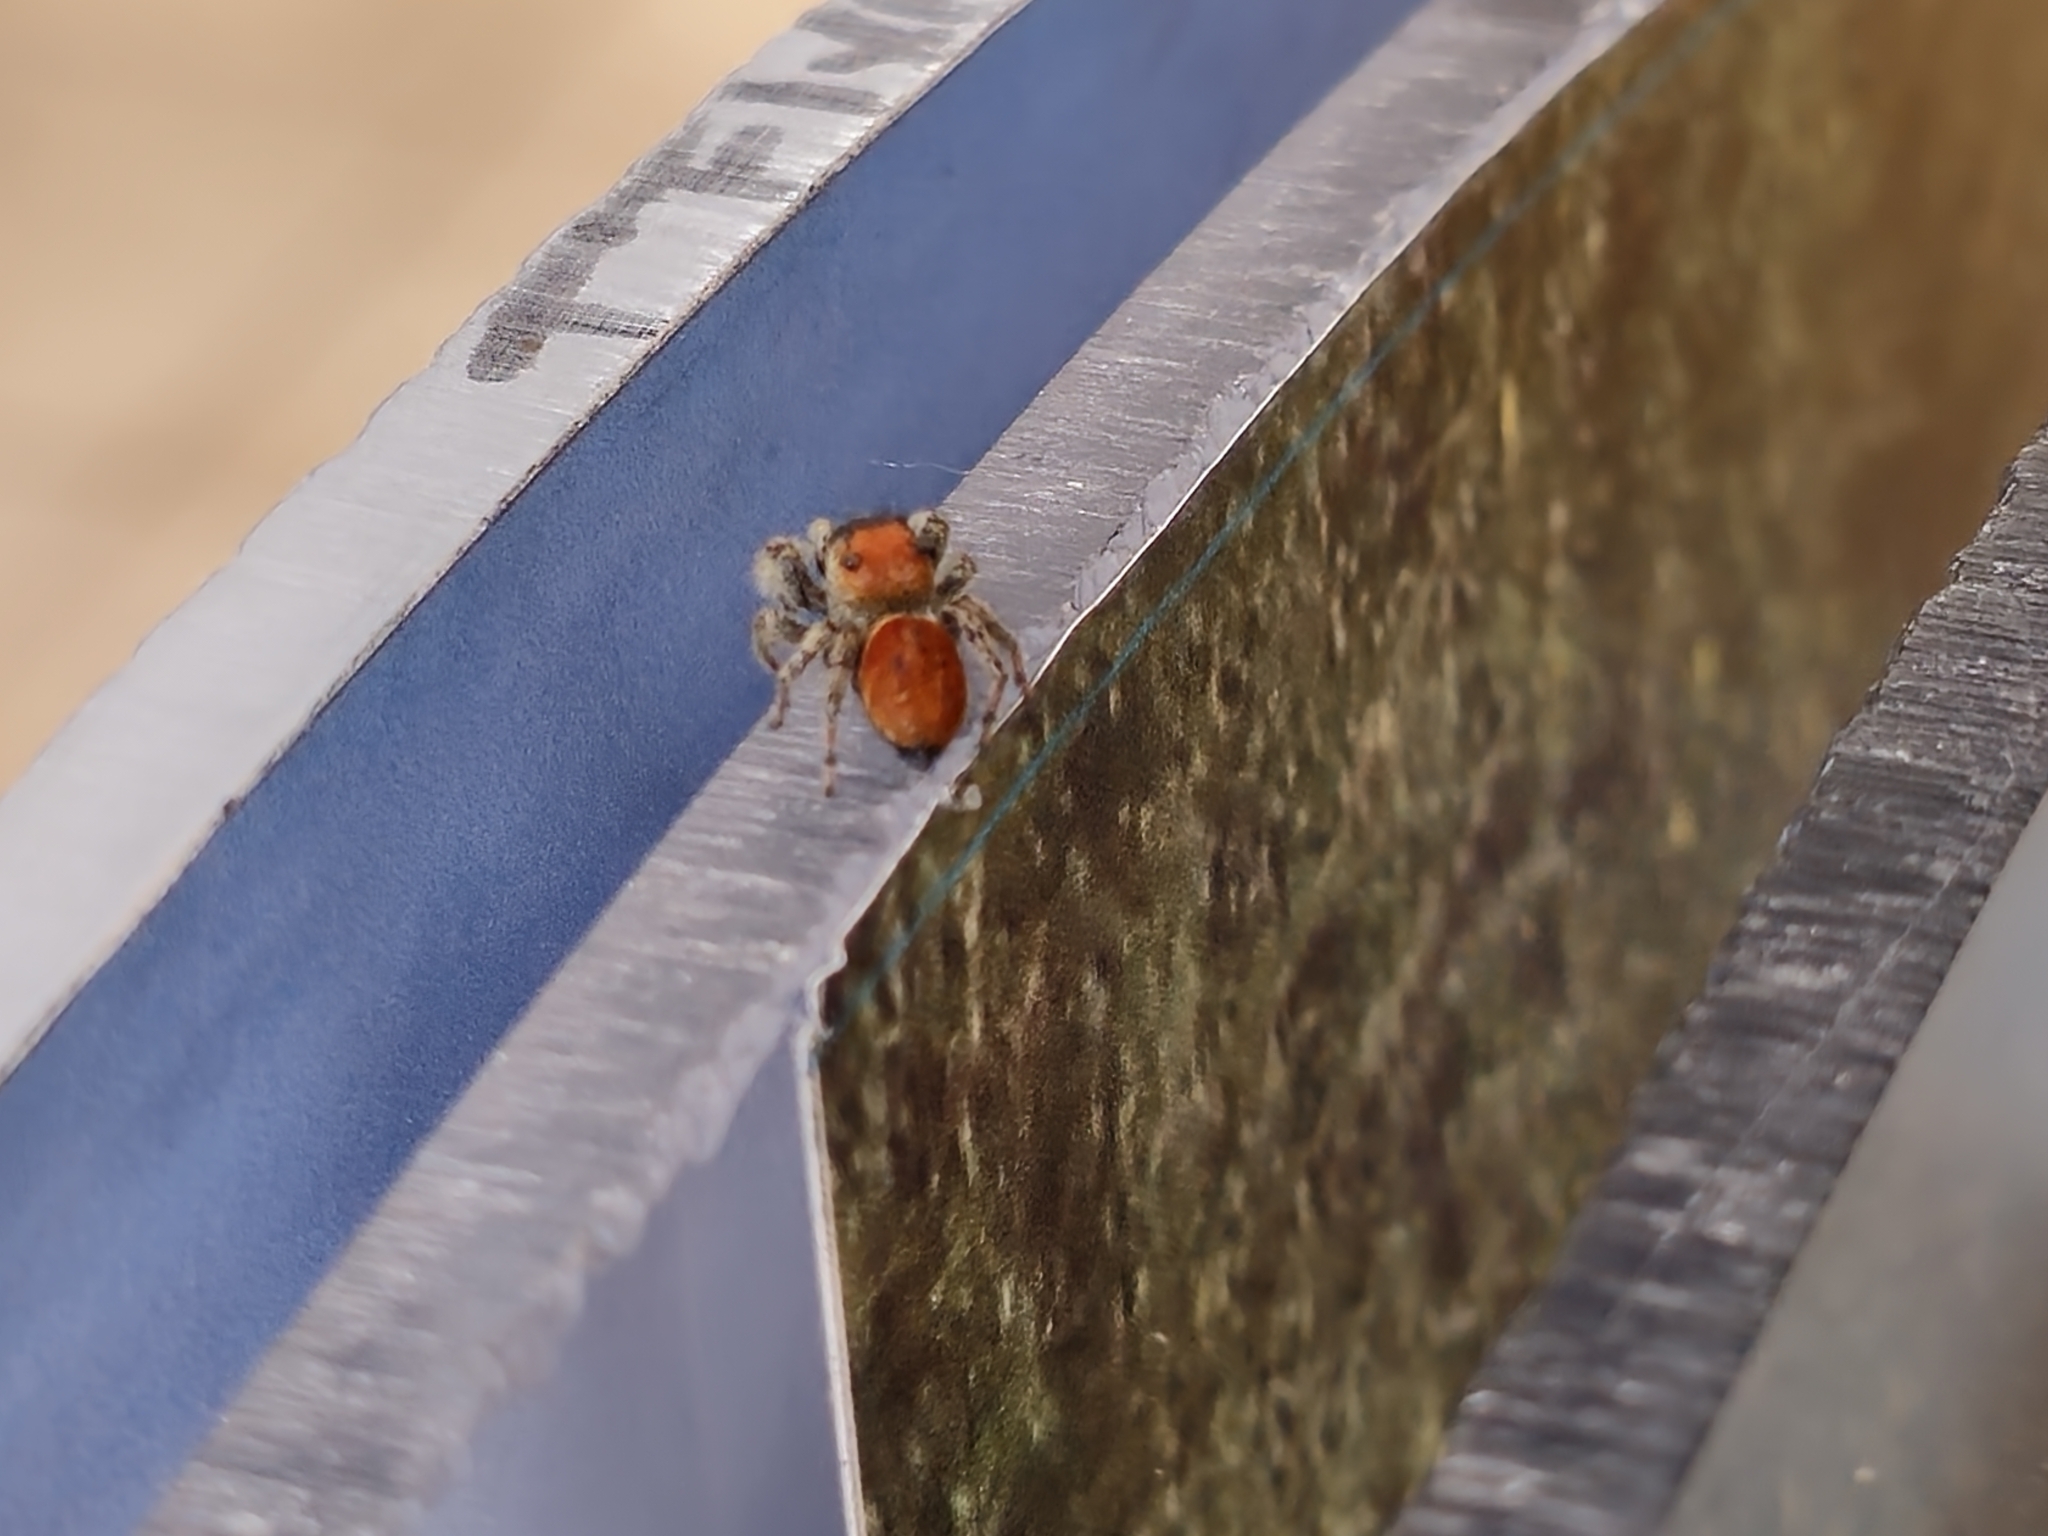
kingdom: Animalia
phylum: Arthropoda
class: Arachnida
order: Araneae
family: Salticidae
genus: Phidippus
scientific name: Phidippus whitmani
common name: Whitman's jumping spider
